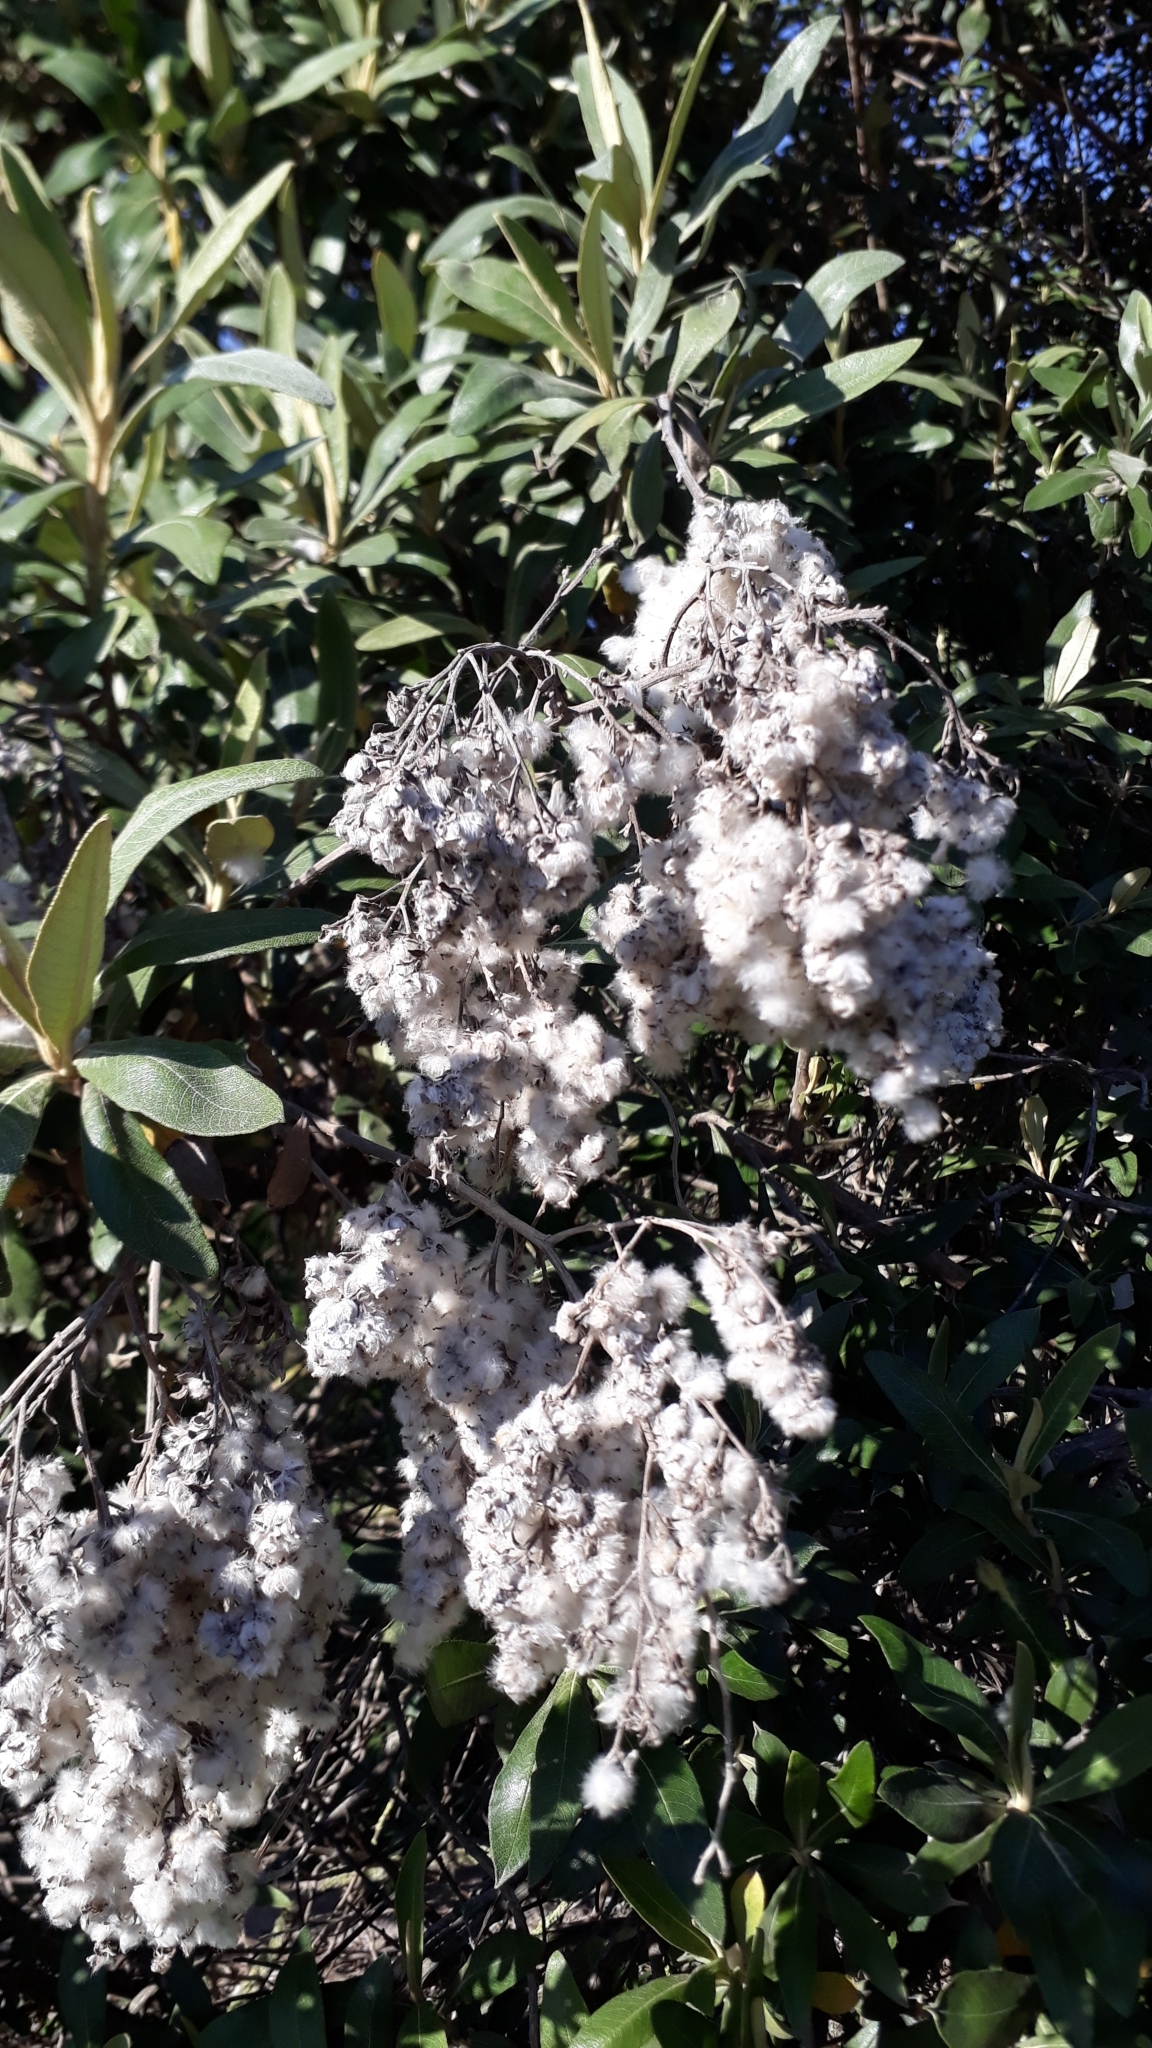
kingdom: Plantae
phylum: Tracheophyta
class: Magnoliopsida
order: Asterales
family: Asteraceae
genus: Tarchonanthus
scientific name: Tarchonanthus littoralis
